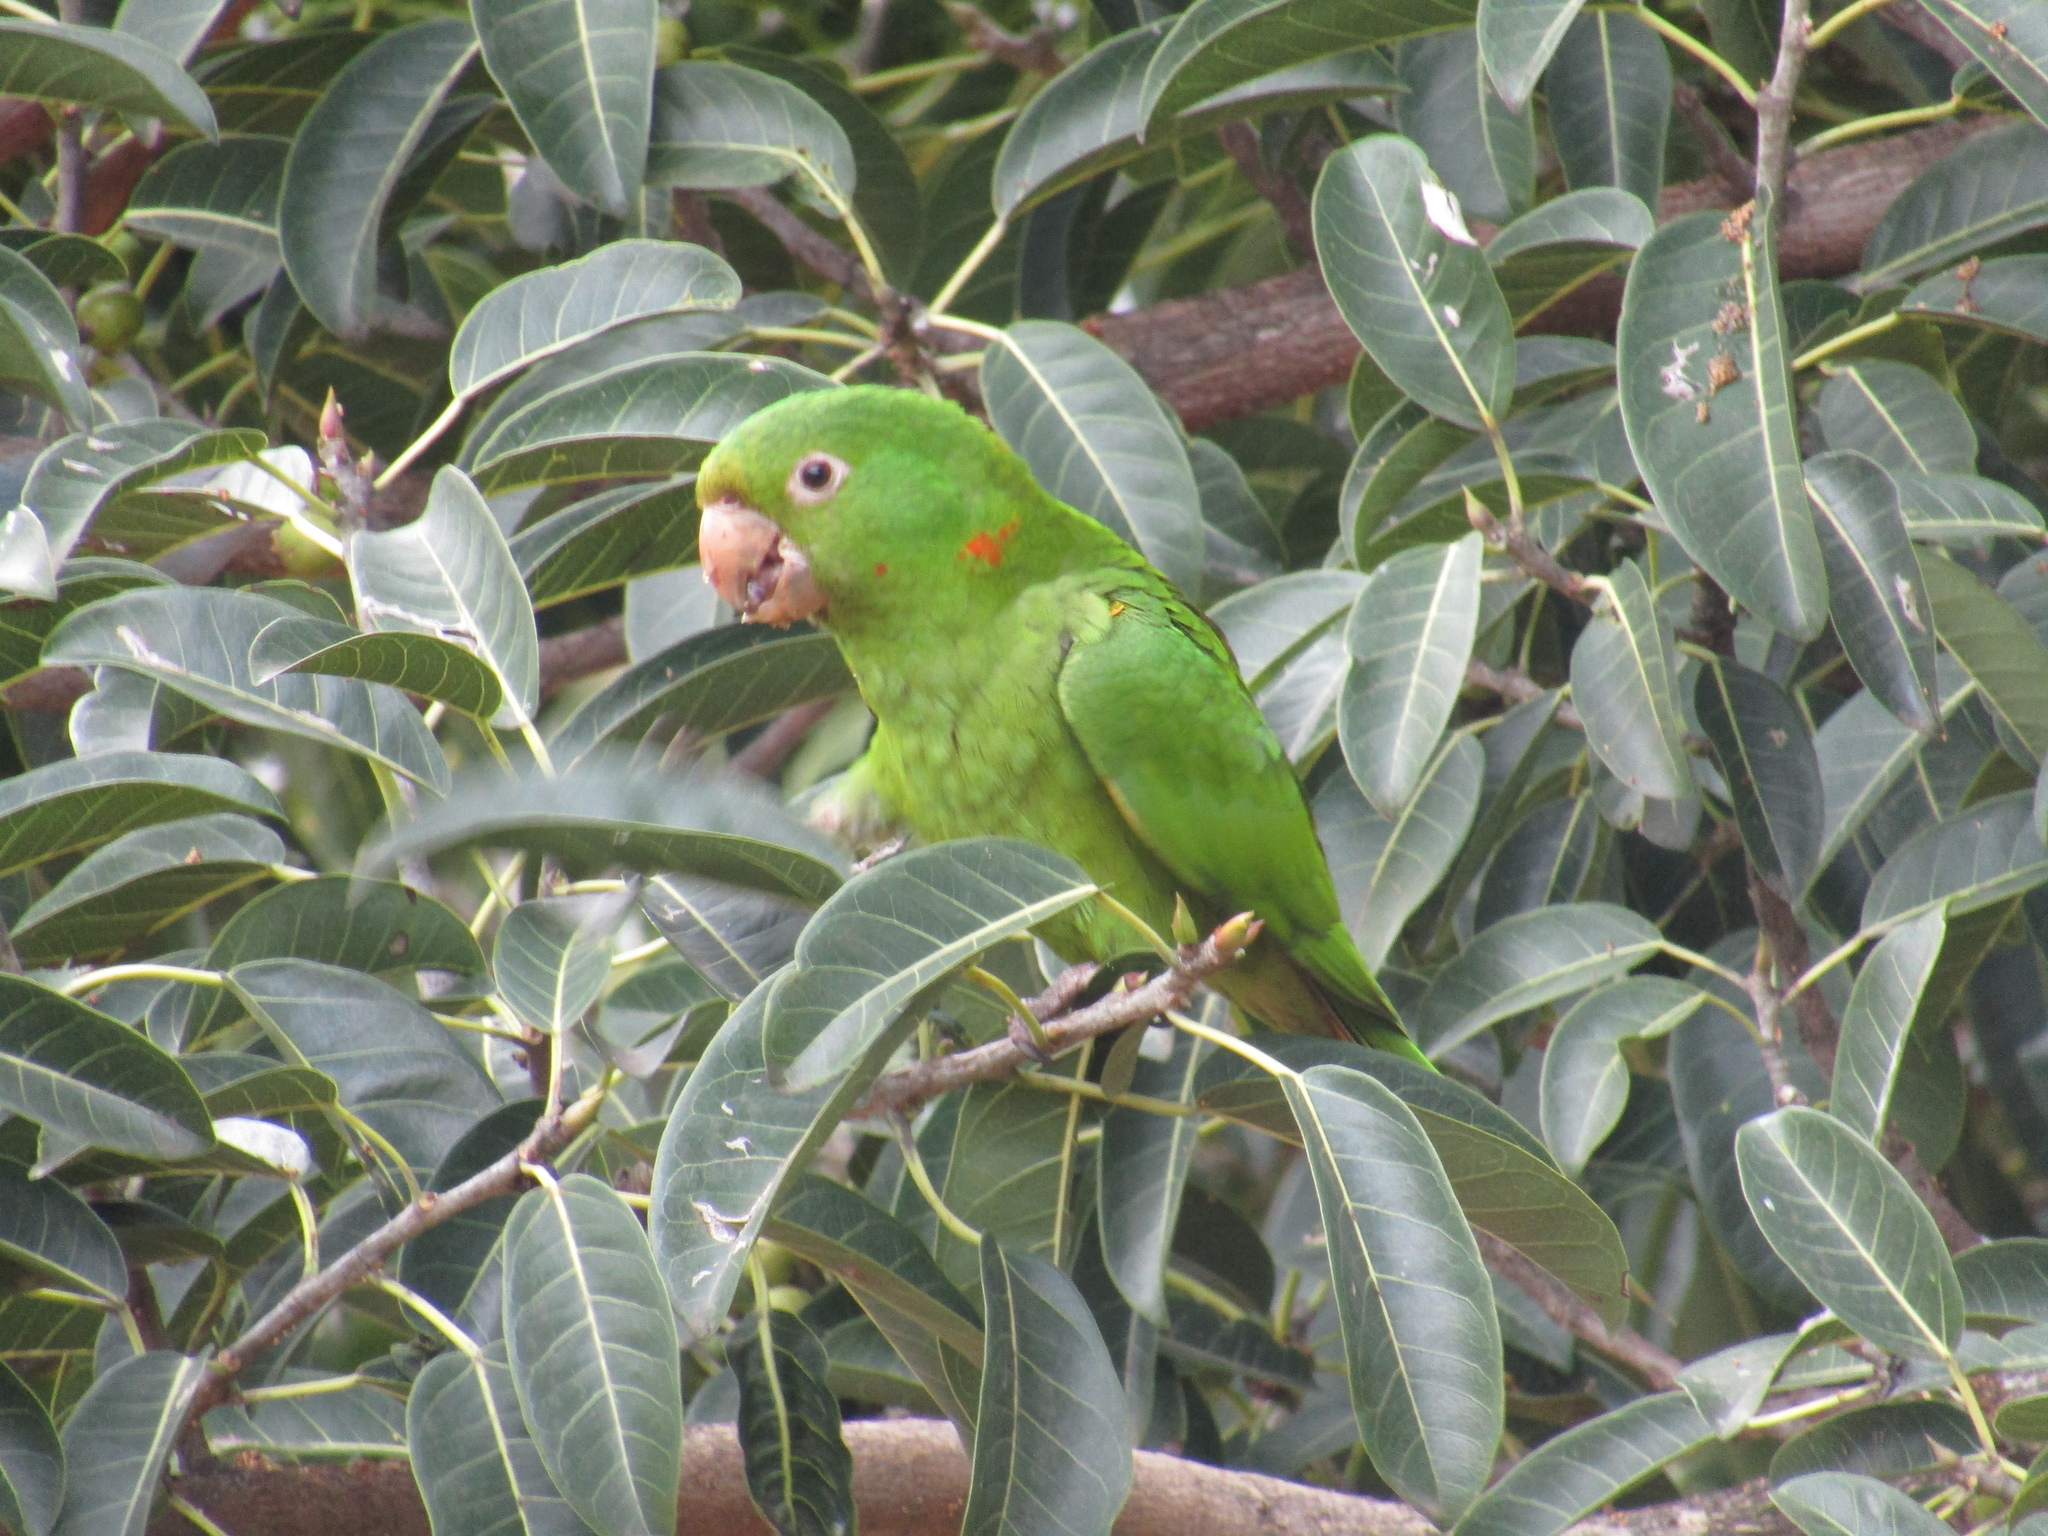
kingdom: Animalia
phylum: Chordata
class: Aves
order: Psittaciformes
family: Psittacidae
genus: Aratinga
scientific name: Aratinga leucophthalma
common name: White-eyed parakeet
